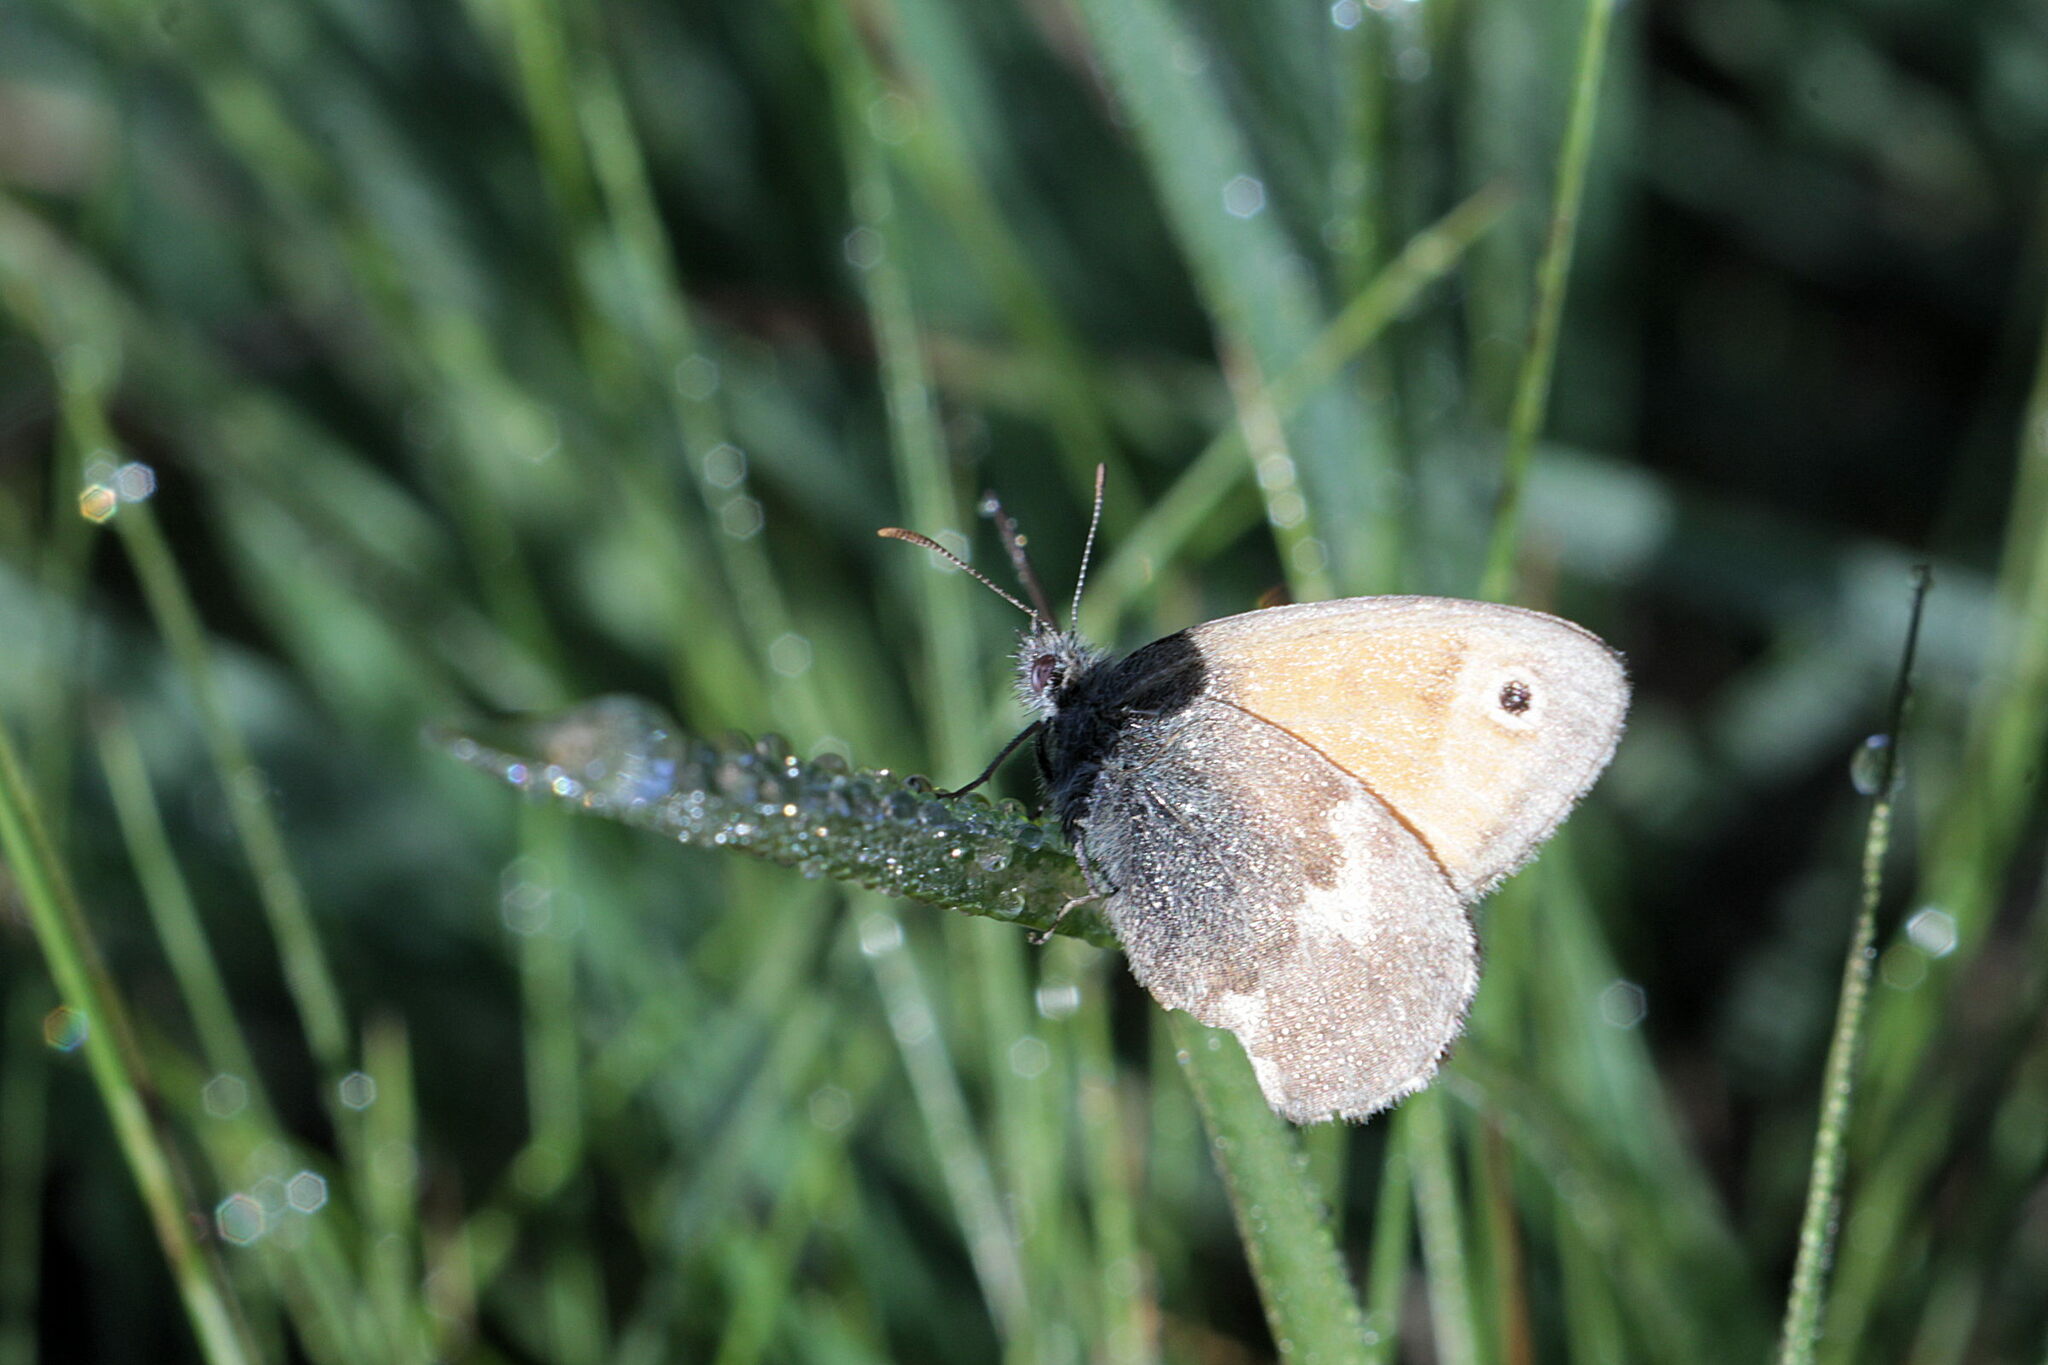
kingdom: Animalia
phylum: Arthropoda
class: Insecta
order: Lepidoptera
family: Nymphalidae
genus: Coenonympha
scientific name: Coenonympha pamphilus
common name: Small heath
